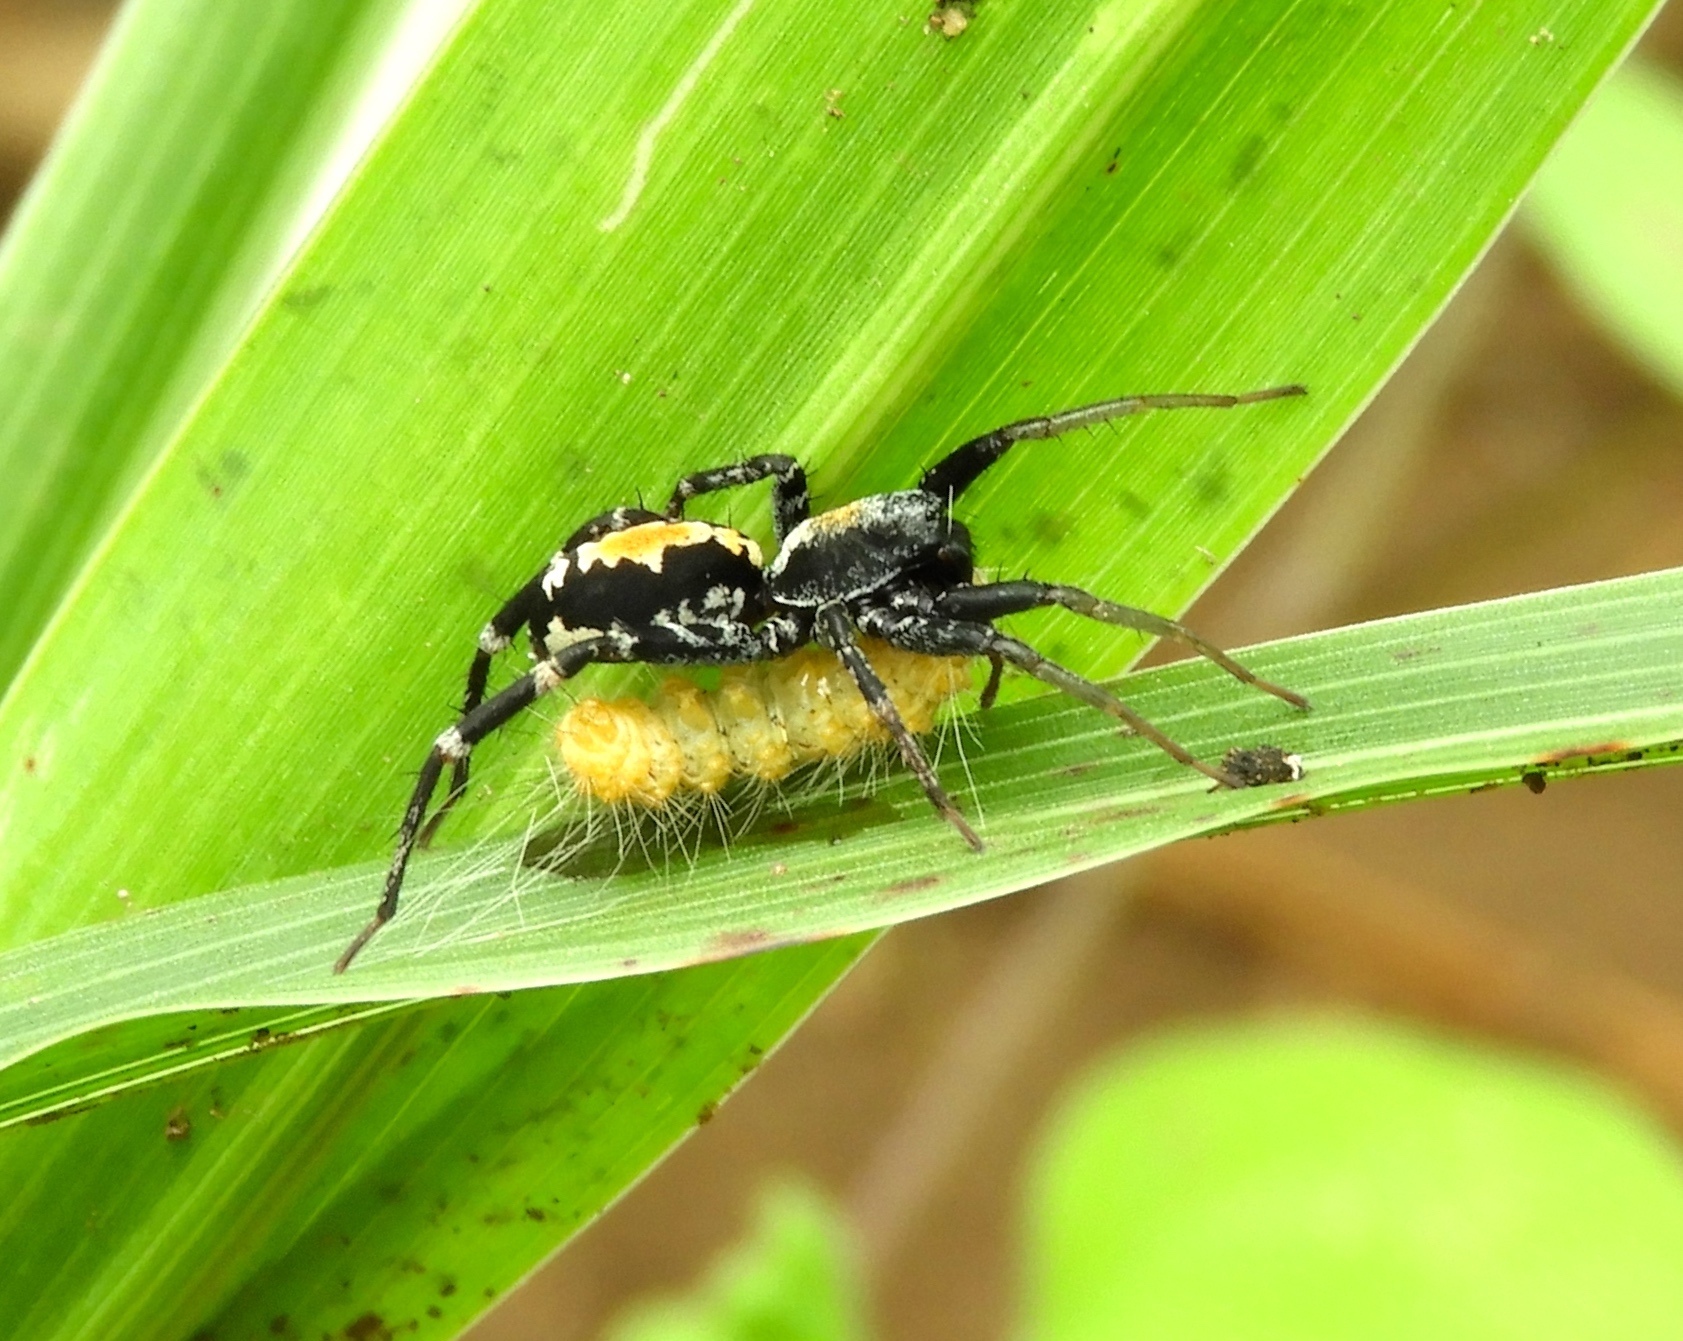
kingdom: Animalia
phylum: Arthropoda
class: Arachnida
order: Araneae
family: Corinnidae
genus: Castianeira
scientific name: Castianeira dorsata
